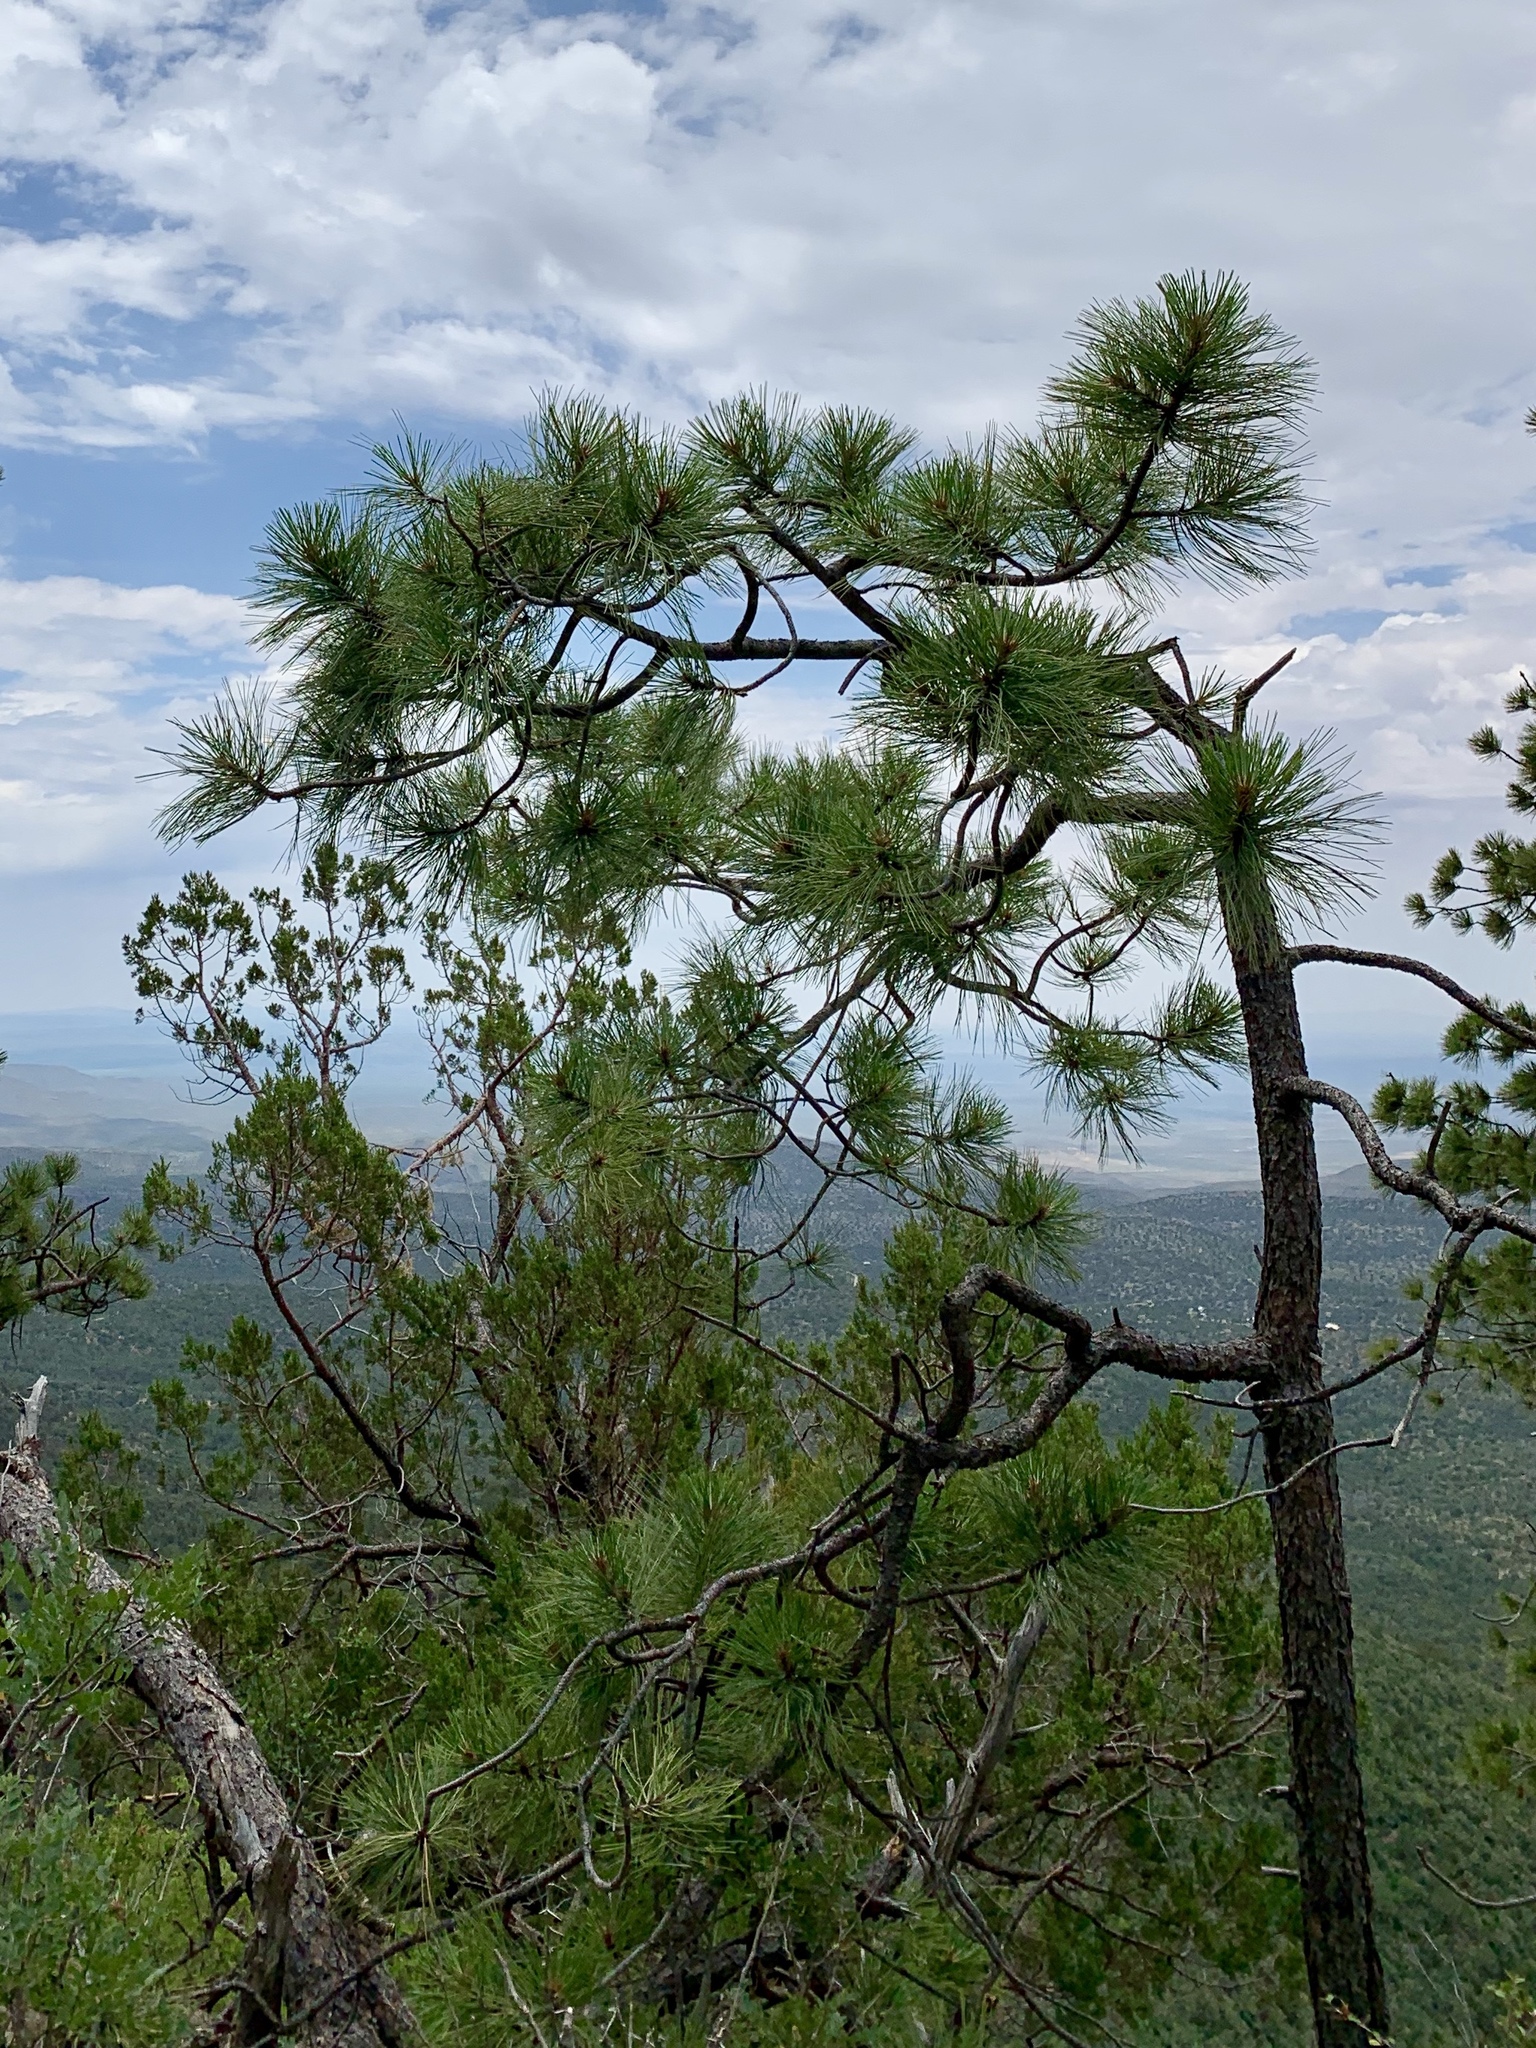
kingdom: Plantae
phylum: Tracheophyta
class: Pinopsida
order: Pinales
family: Pinaceae
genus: Pinus
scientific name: Pinus ponderosa
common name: Western yellow-pine
